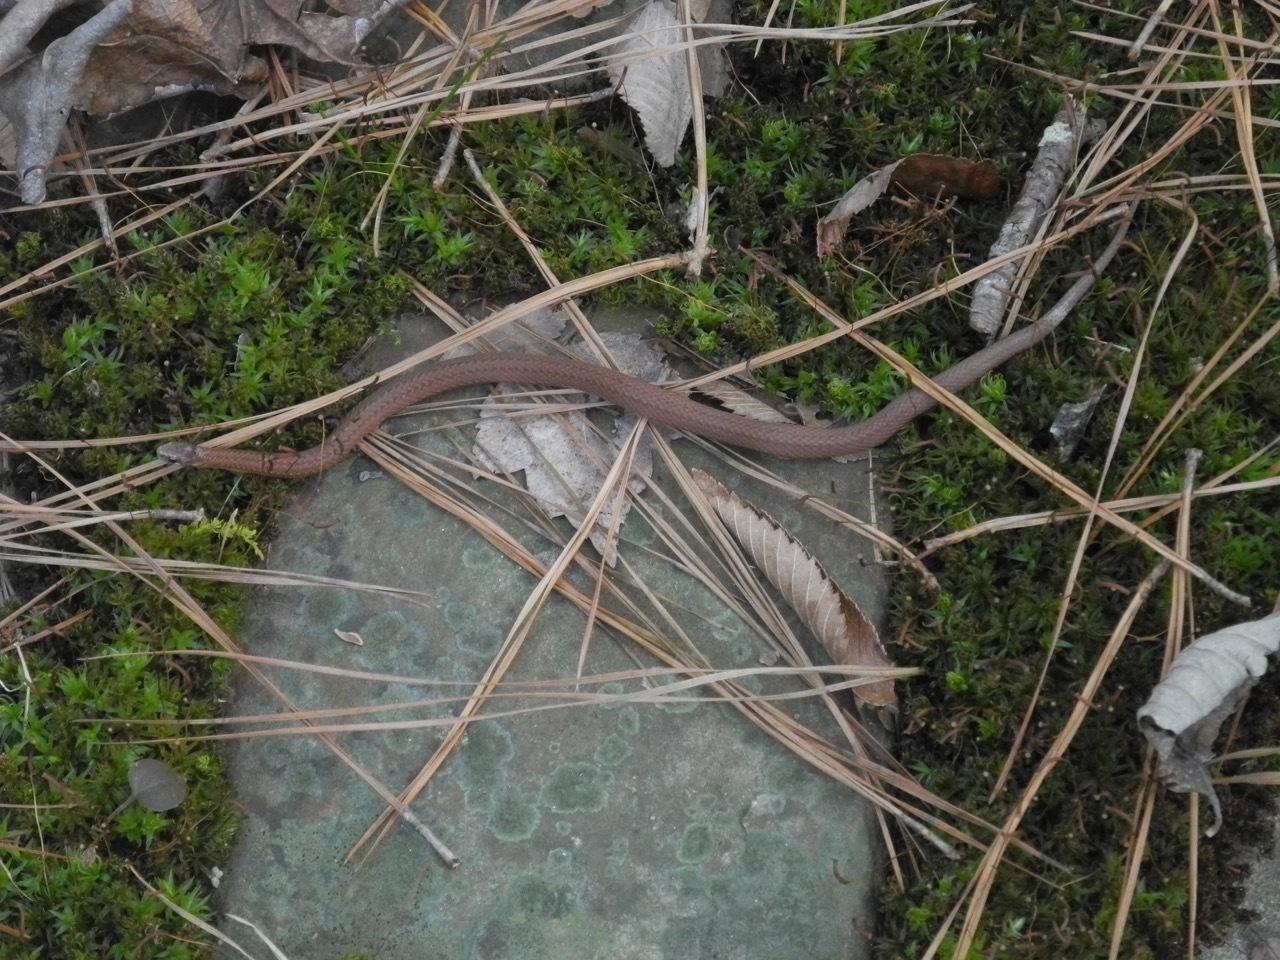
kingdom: Animalia
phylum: Chordata
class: Squamata
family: Colubridae
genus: Storeria
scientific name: Storeria occipitomaculata
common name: Redbelly snake
